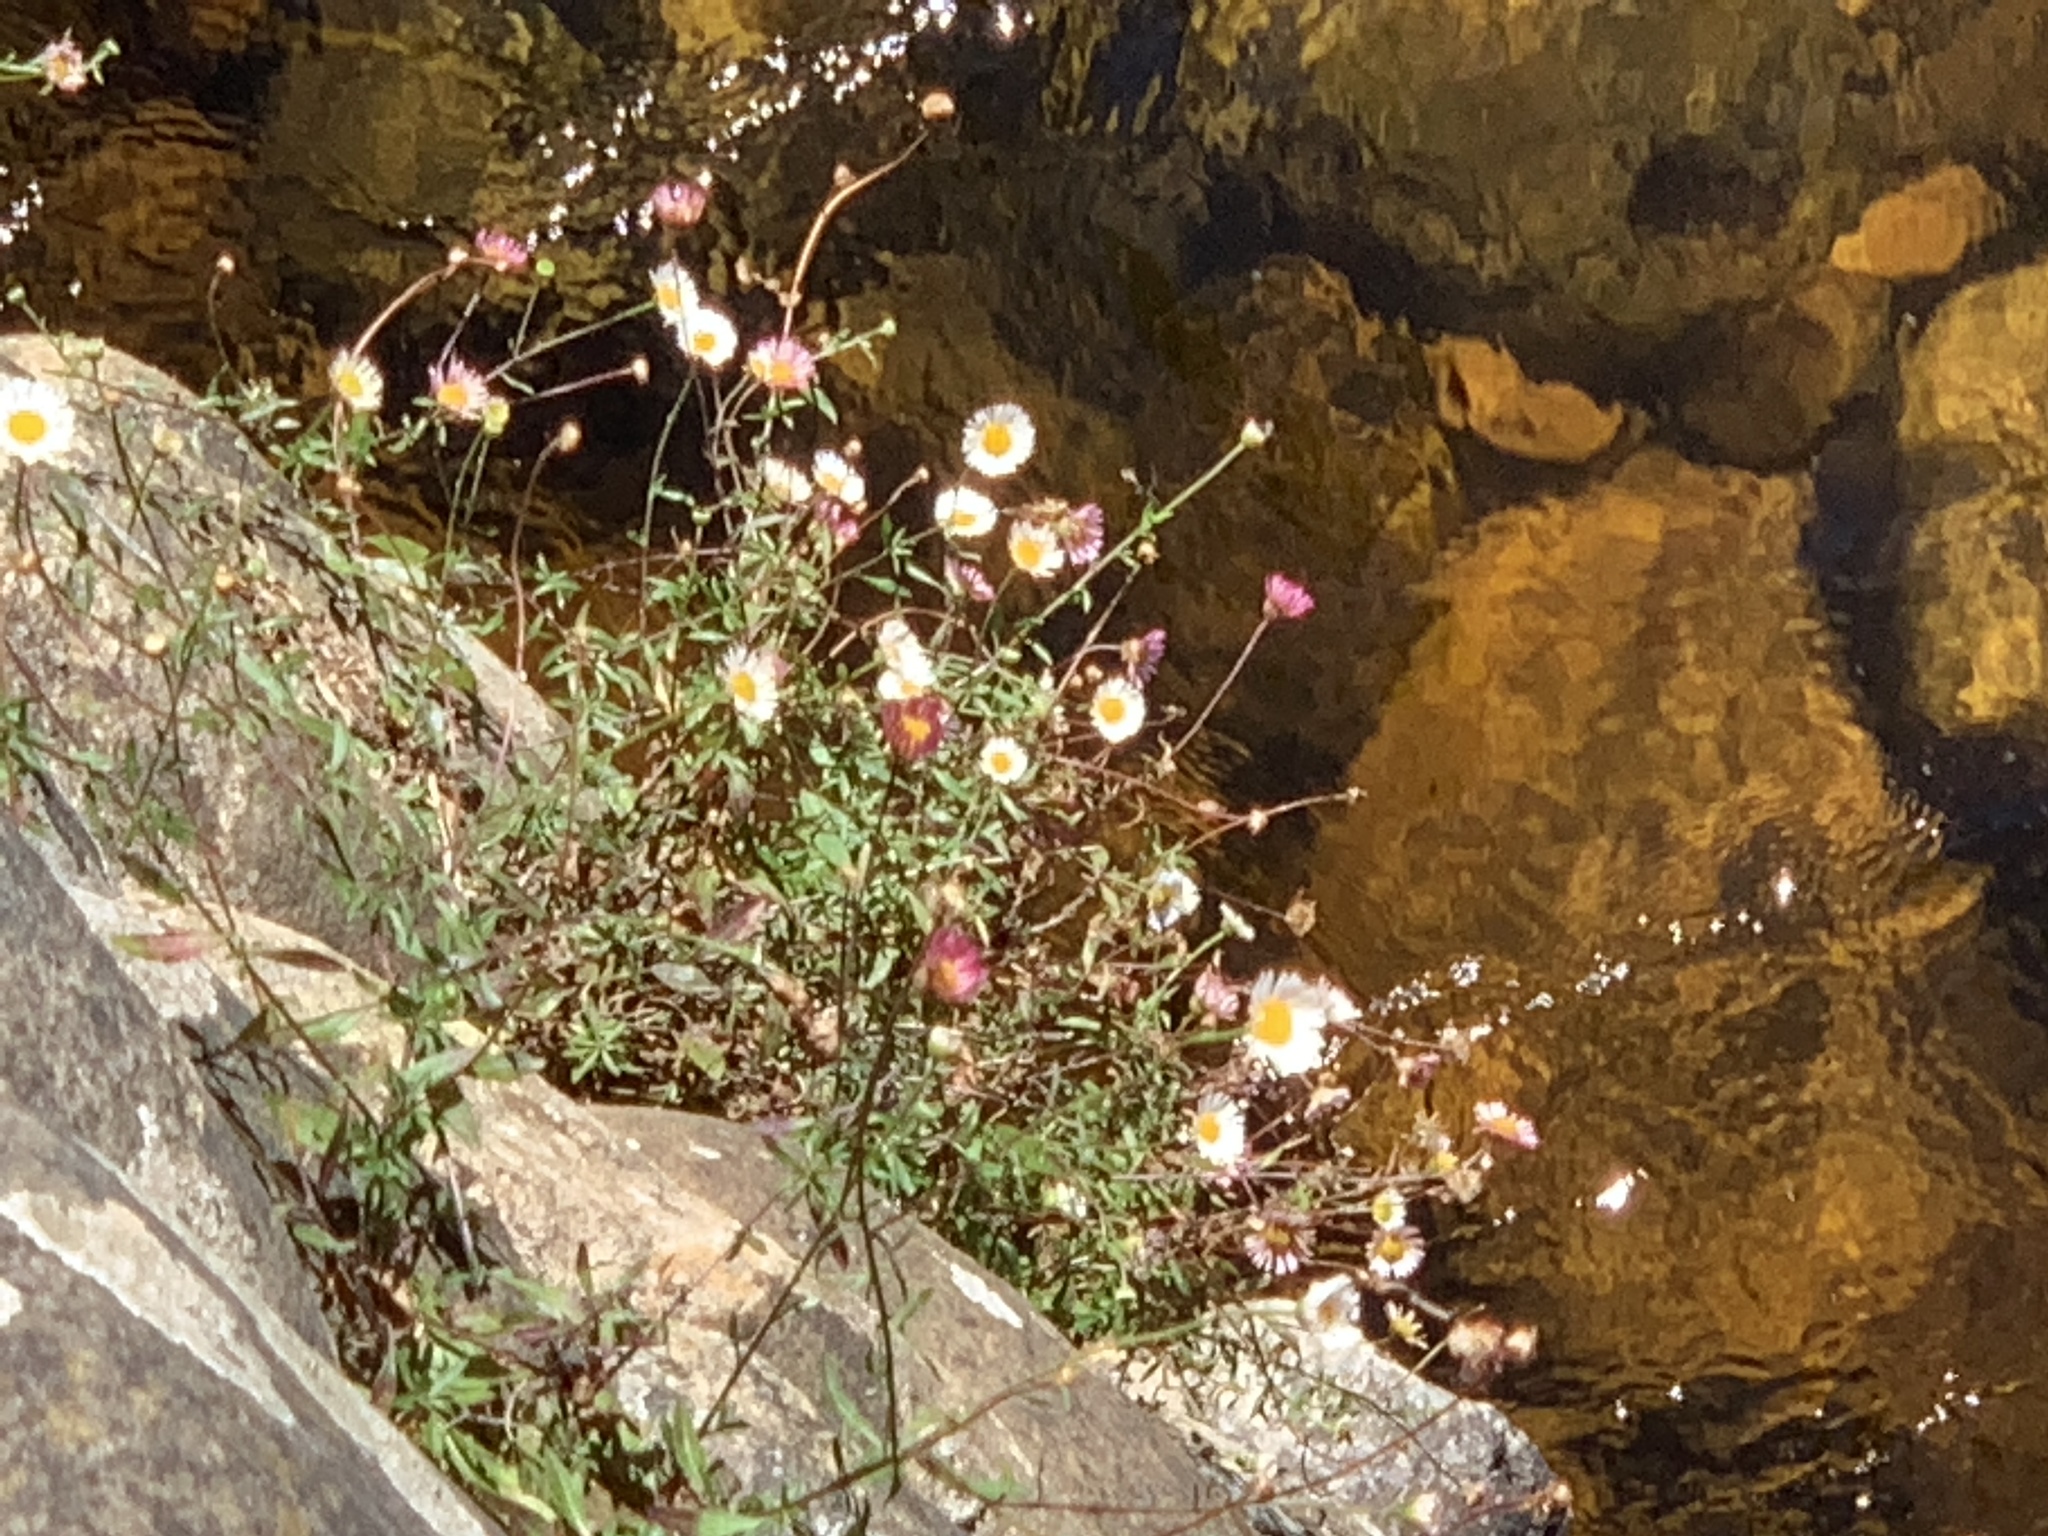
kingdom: Plantae
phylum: Tracheophyta
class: Magnoliopsida
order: Asterales
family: Asteraceae
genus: Erigeron
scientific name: Erigeron karvinskianus
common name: Mexican fleabane
